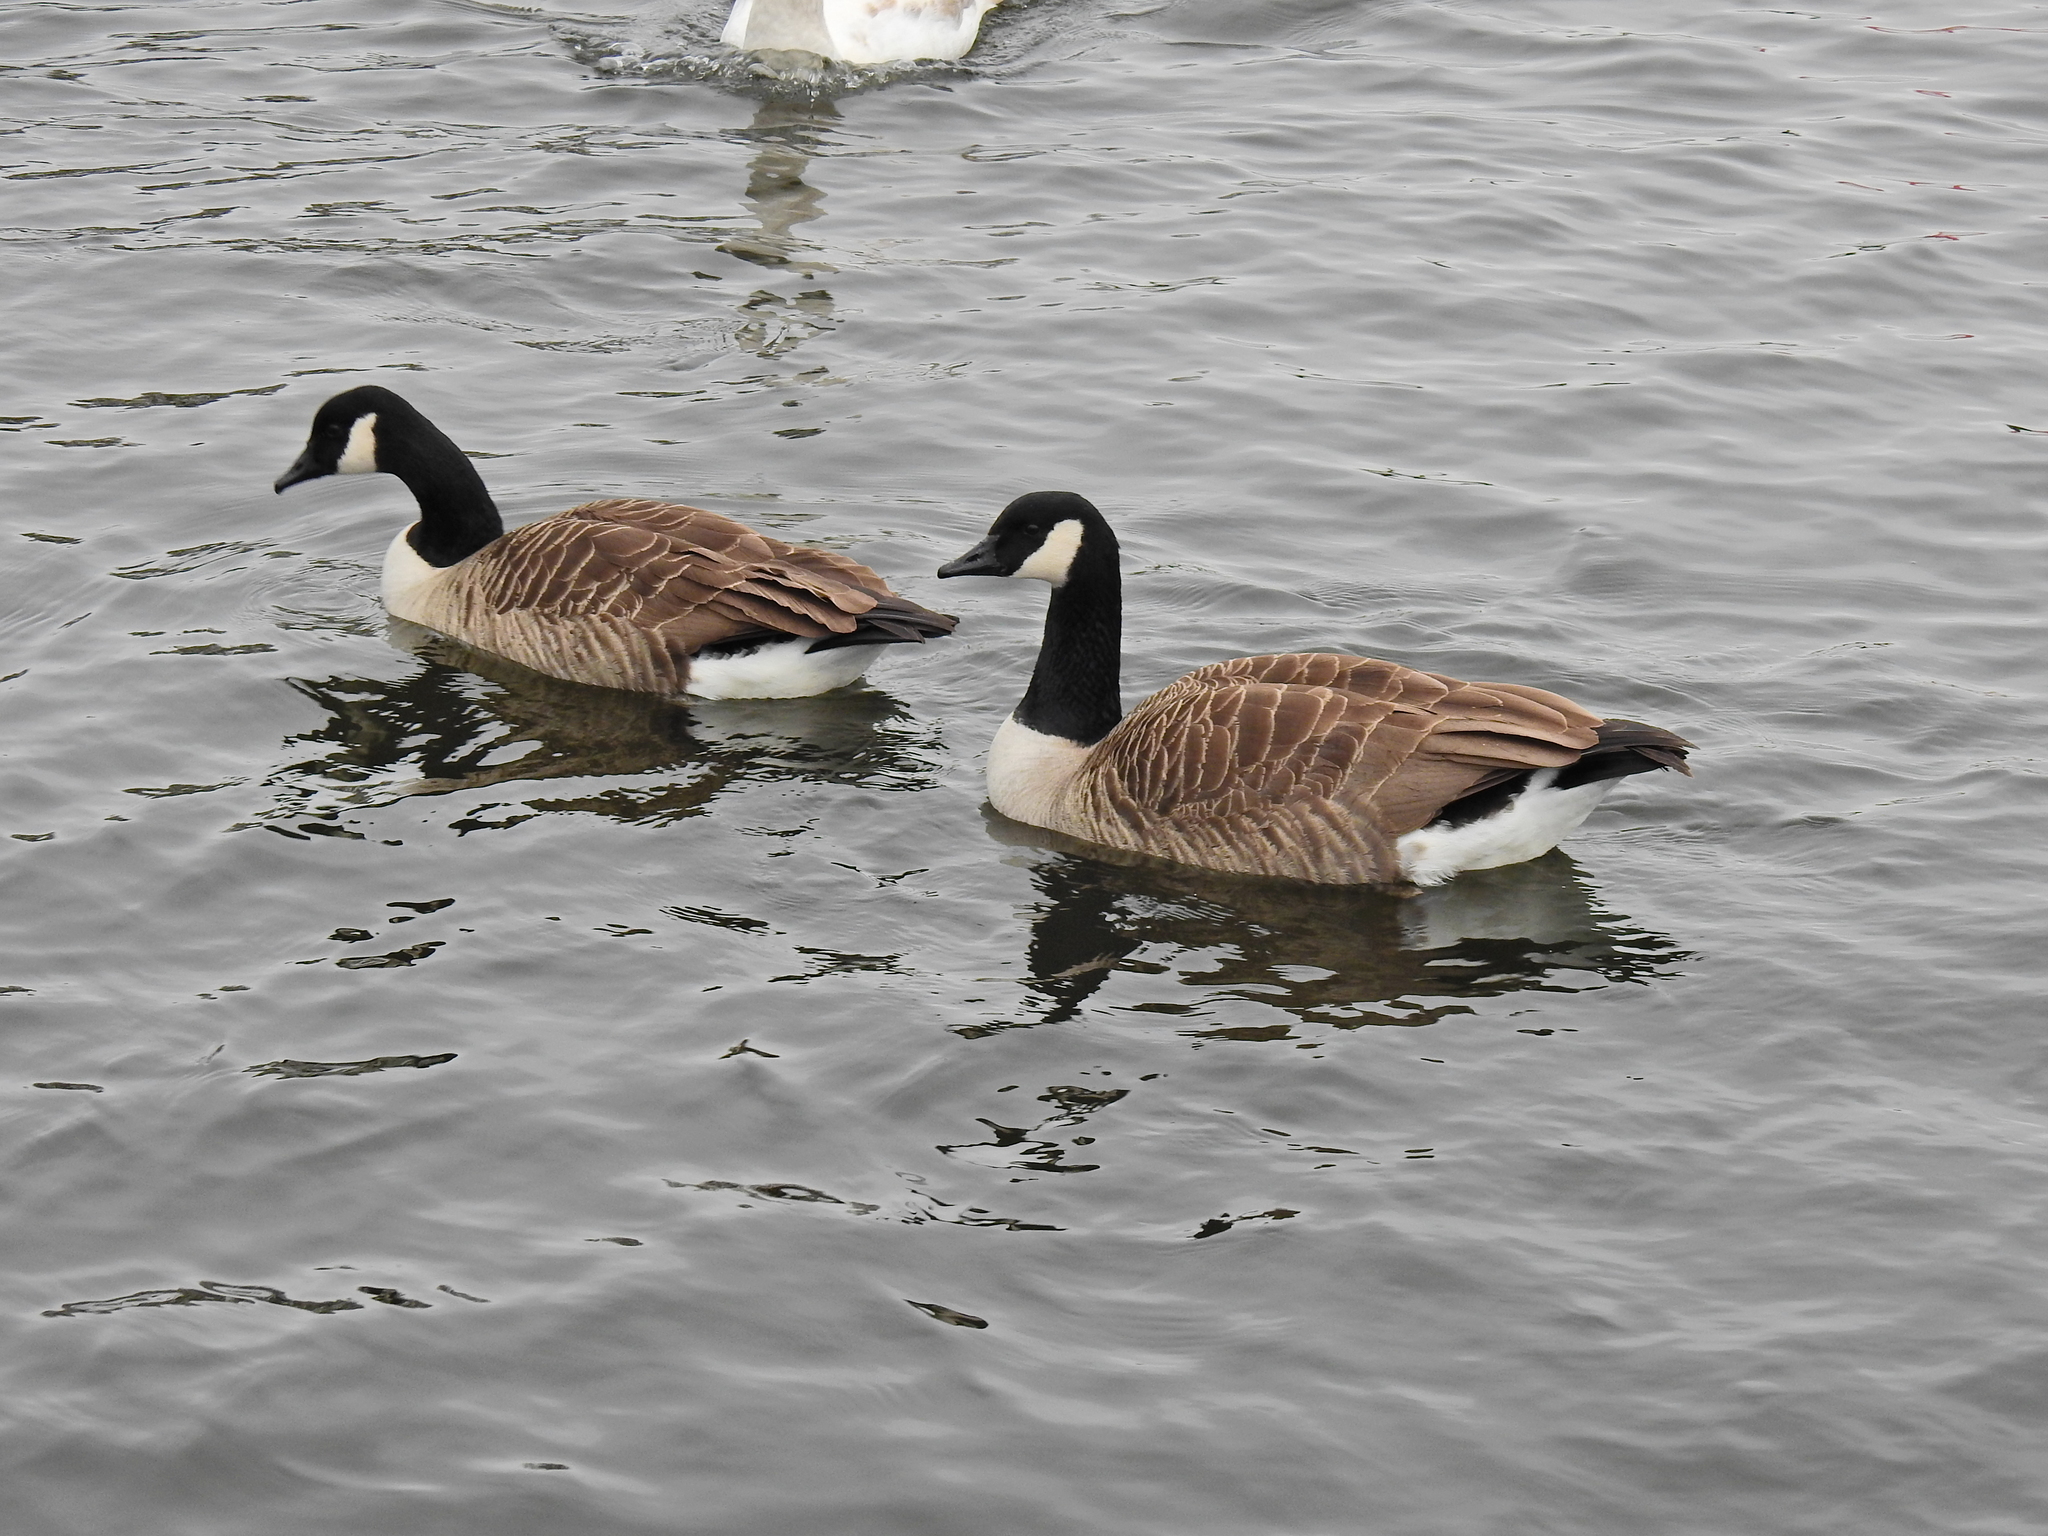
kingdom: Animalia
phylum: Chordata
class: Aves
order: Anseriformes
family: Anatidae
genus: Branta
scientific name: Branta canadensis
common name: Canada goose
